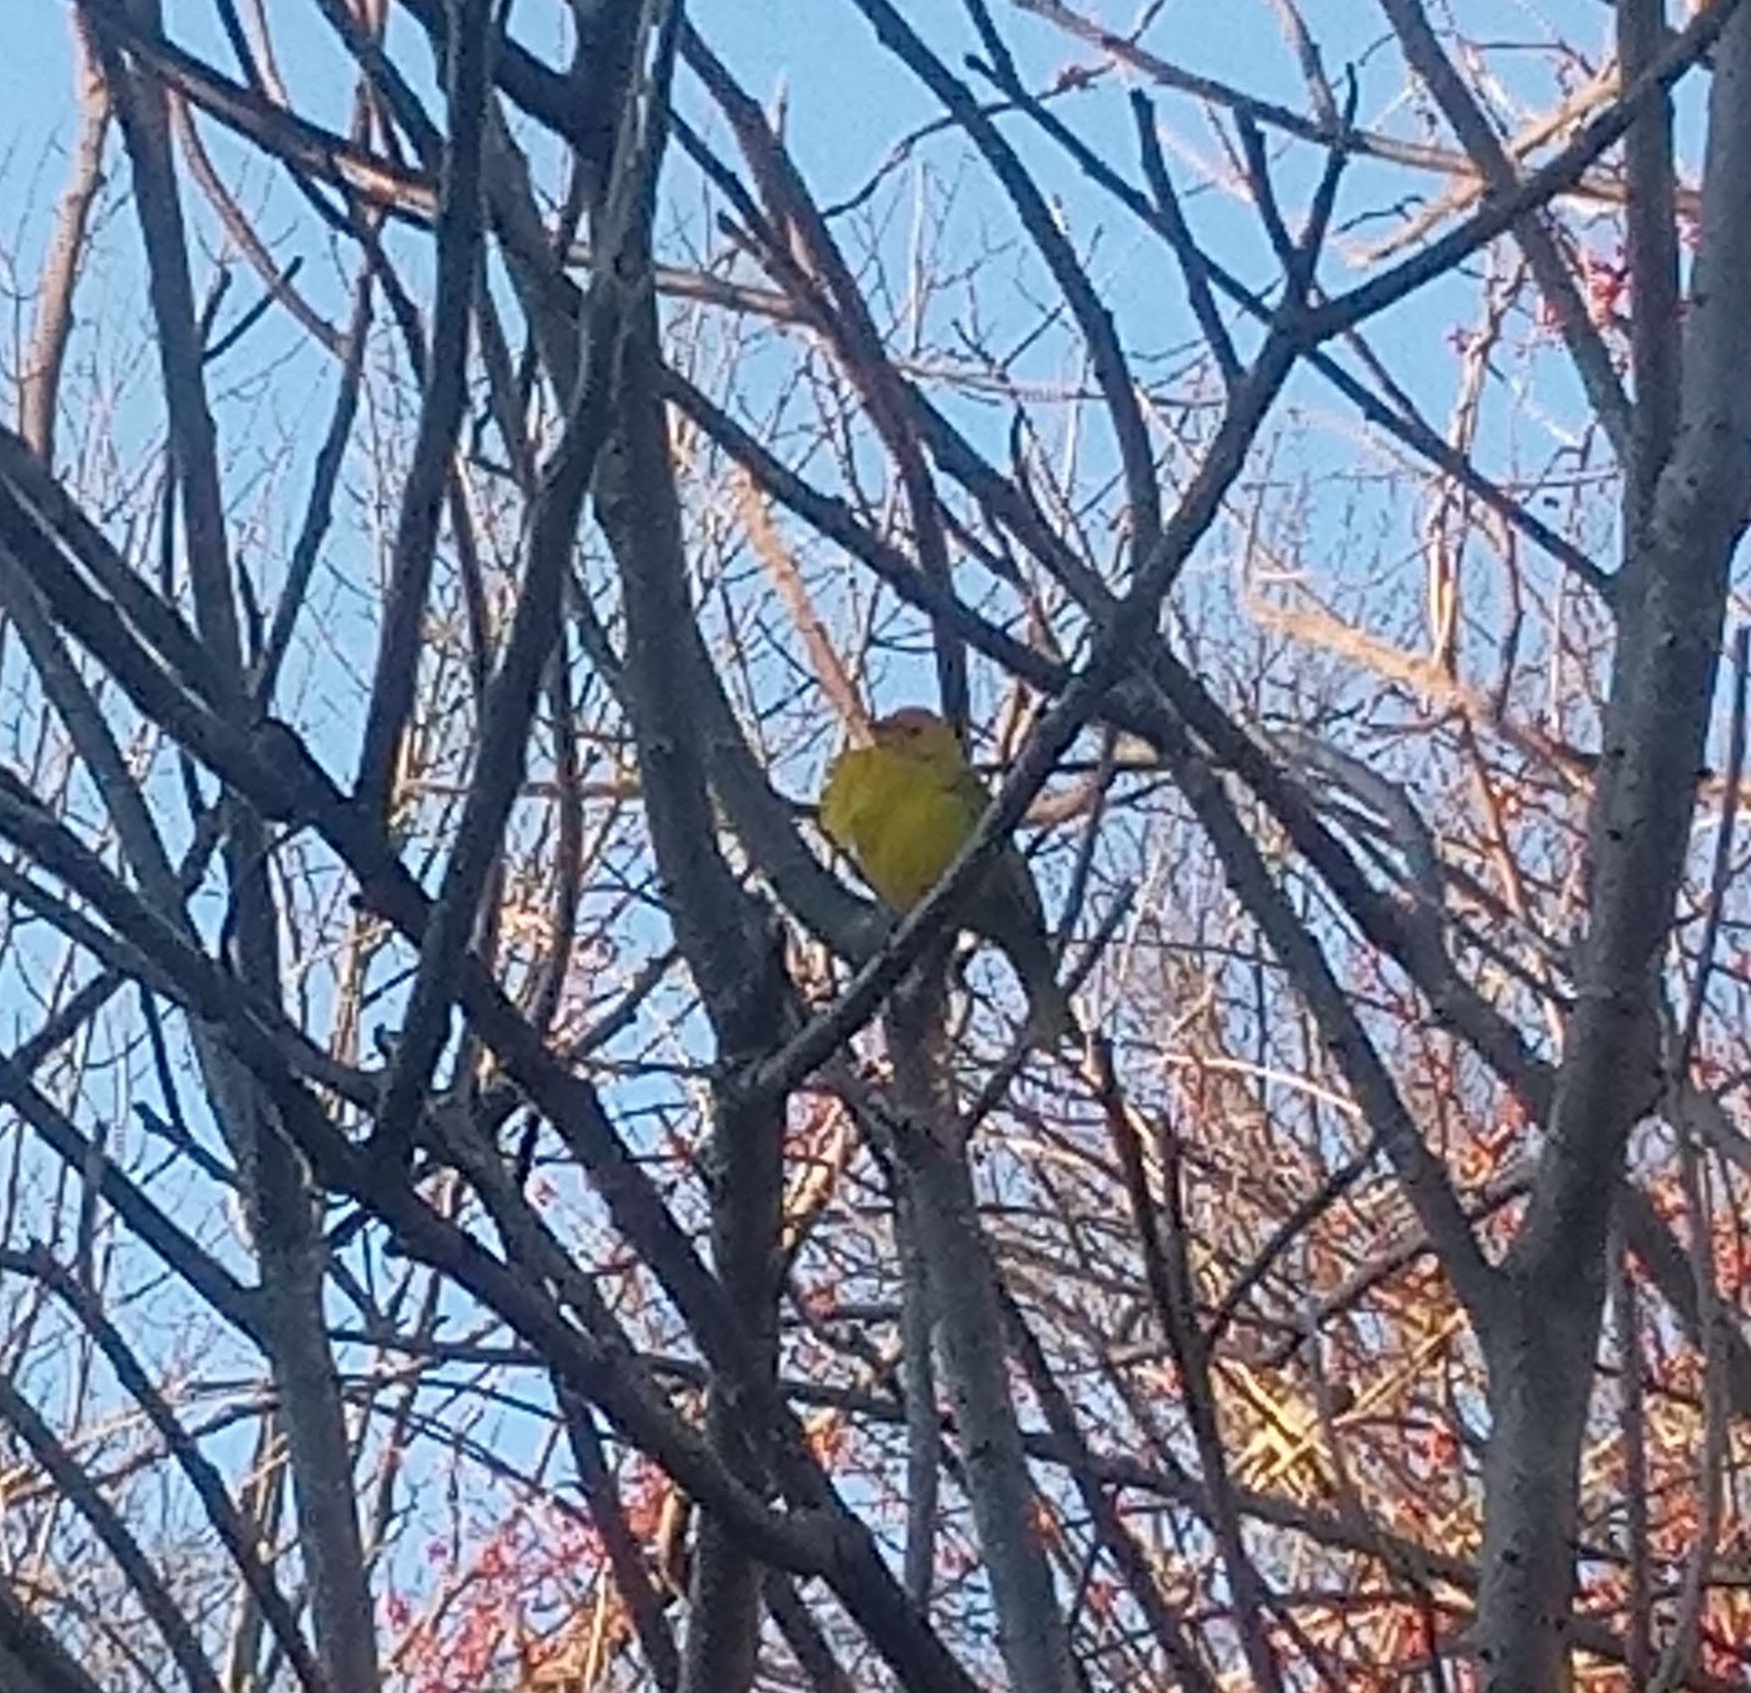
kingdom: Animalia
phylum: Chordata
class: Aves
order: Passeriformes
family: Cardinalidae
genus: Piranga
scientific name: Piranga ludoviciana
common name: Western tanager
